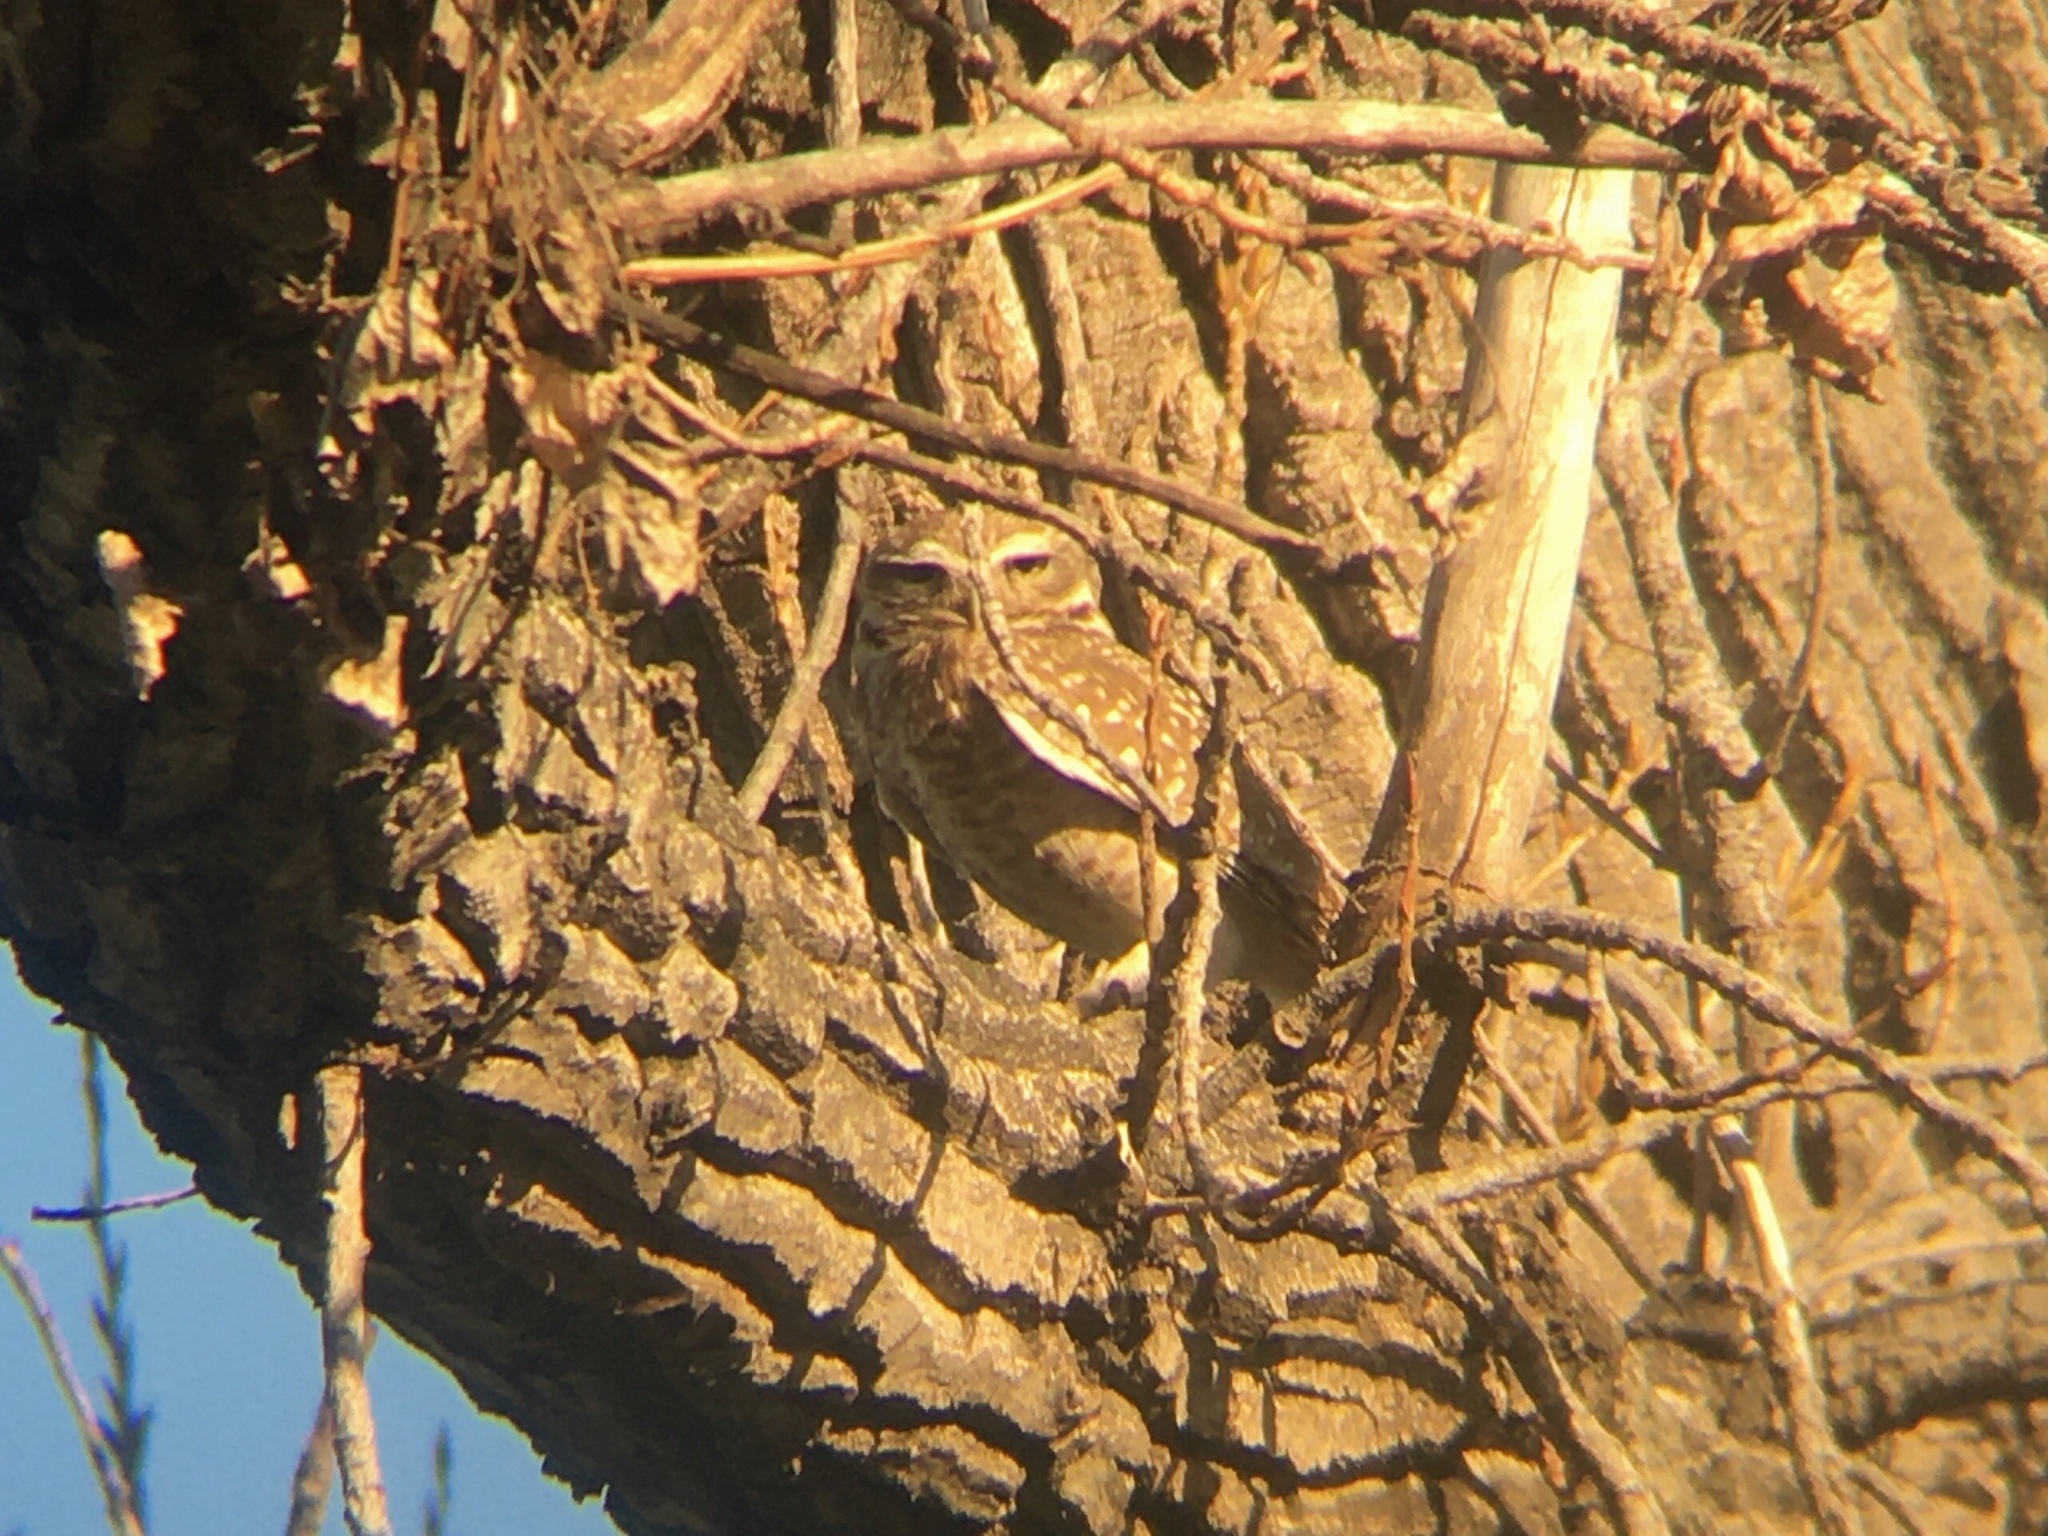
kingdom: Animalia
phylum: Chordata
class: Aves
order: Strigiformes
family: Strigidae
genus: Athene
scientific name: Athene cunicularia
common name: Burrowing owl
